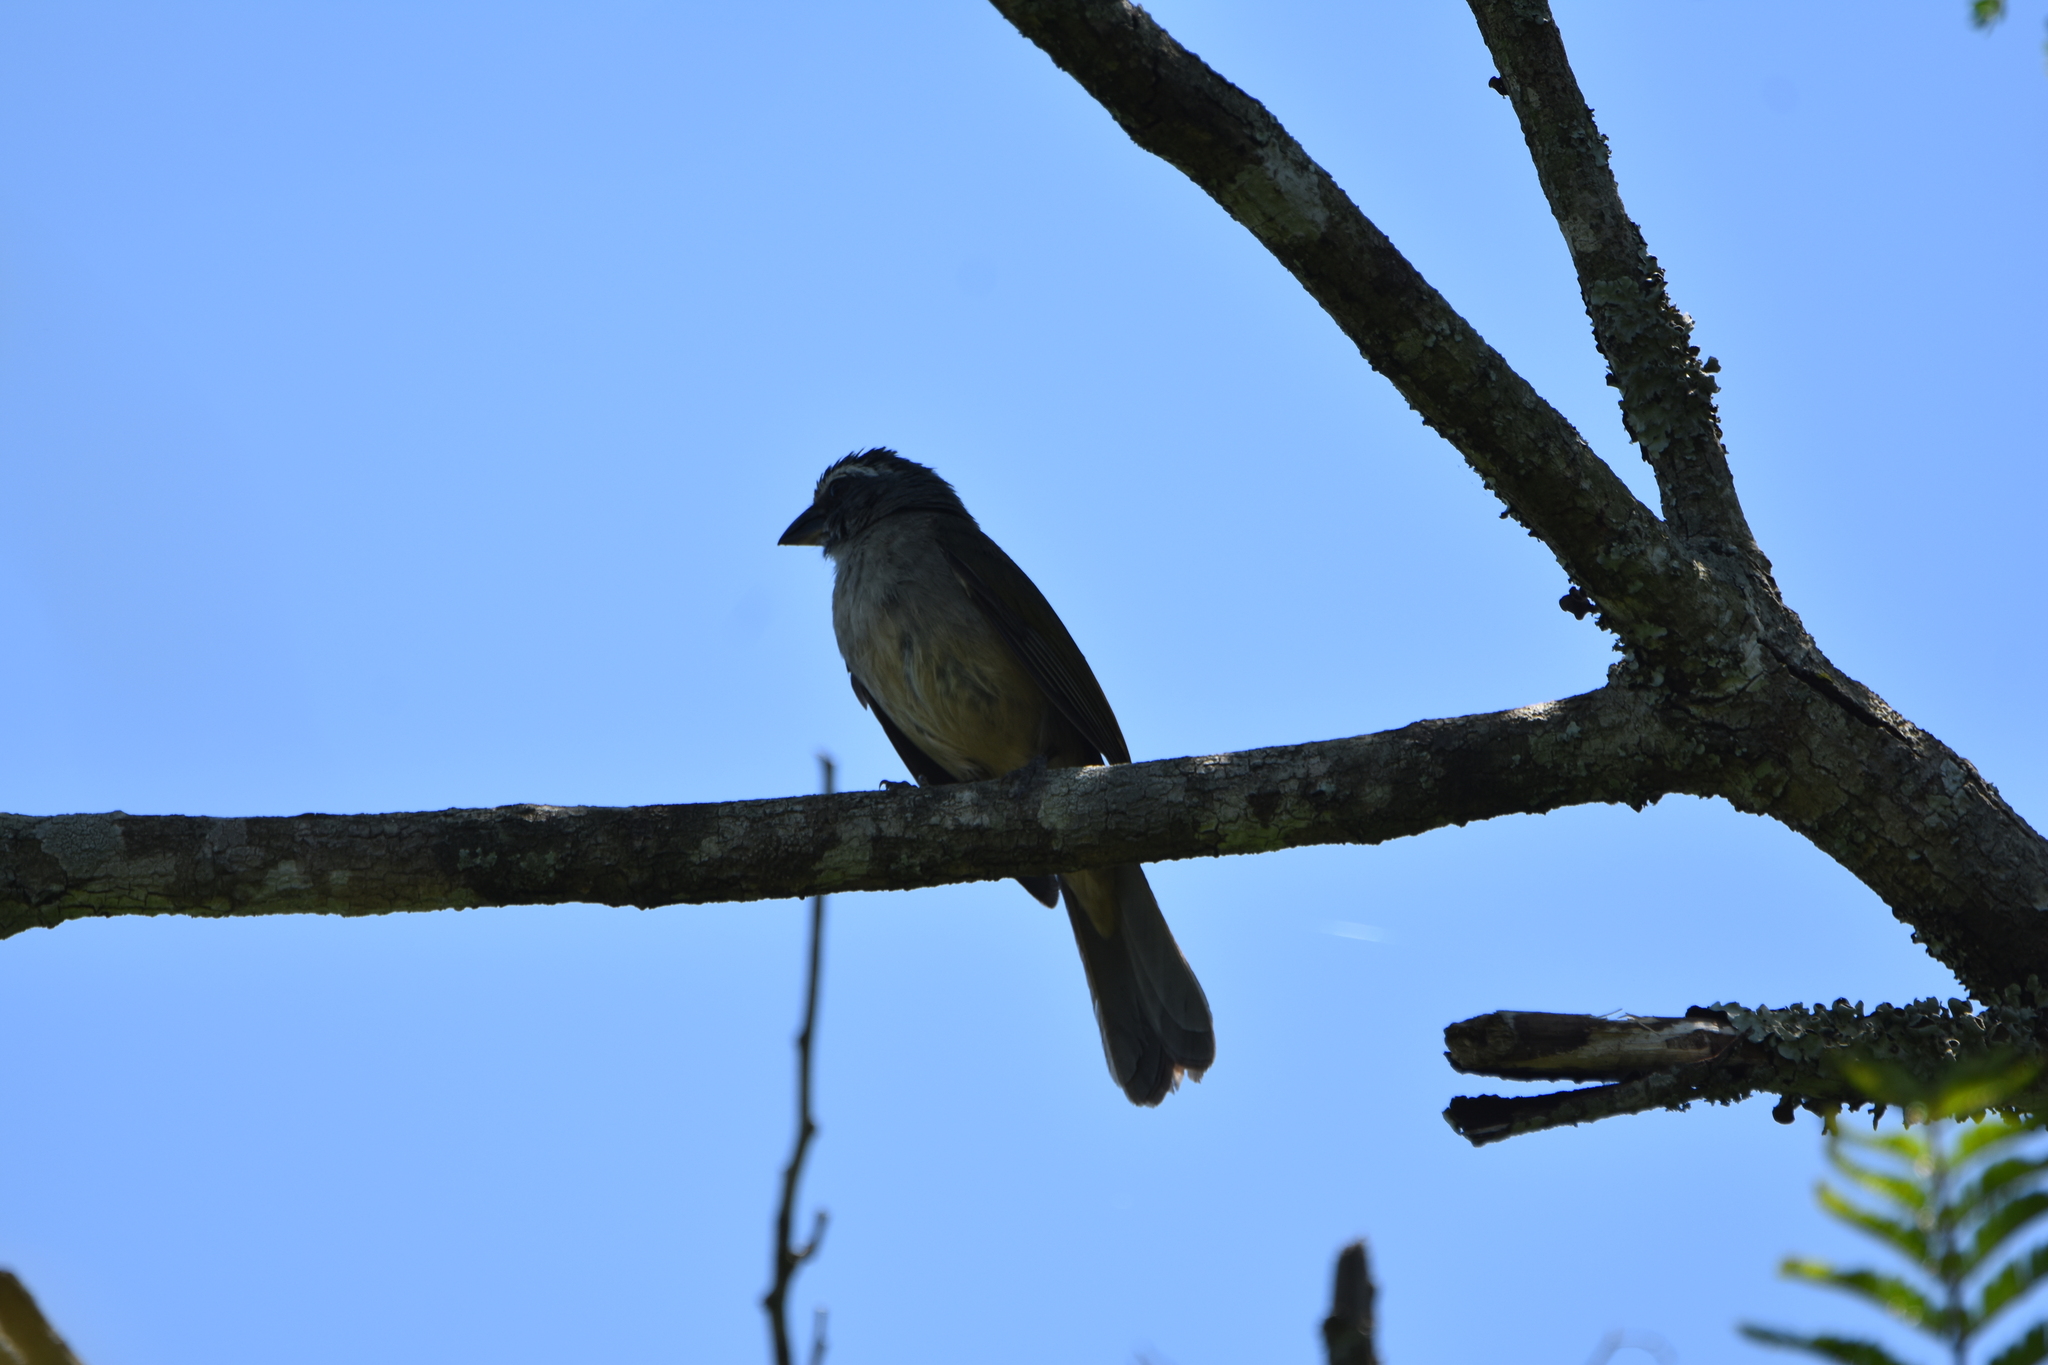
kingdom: Animalia
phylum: Chordata
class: Aves
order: Passeriformes
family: Thraupidae
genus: Saltator
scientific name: Saltator similis
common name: Green-winged saltator
